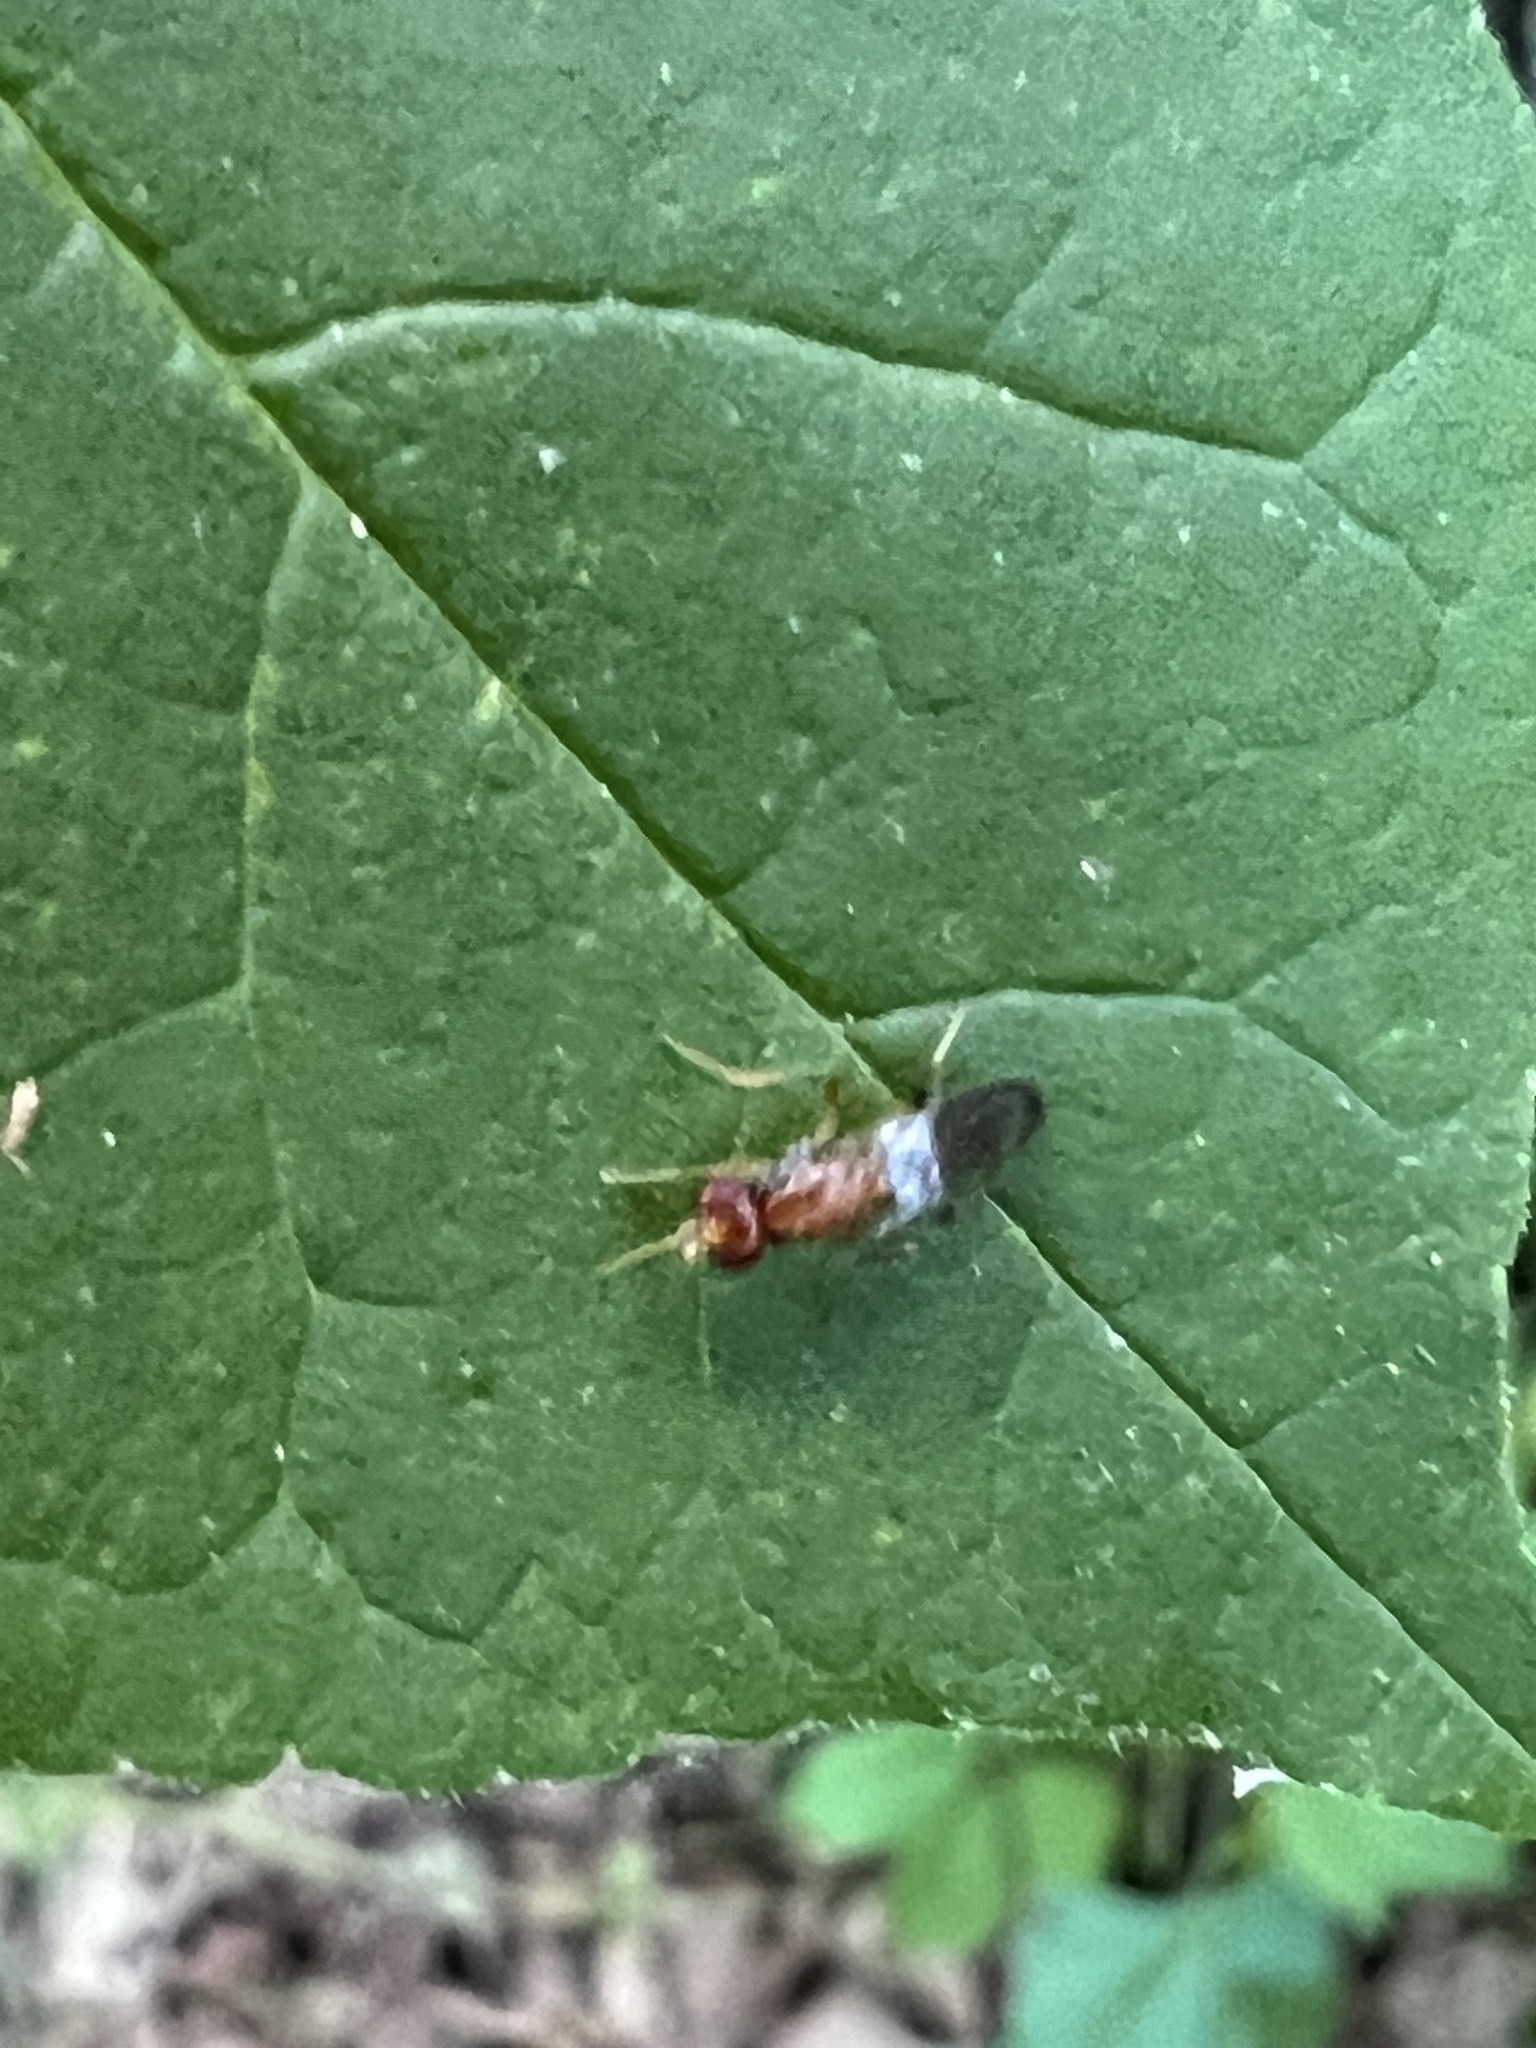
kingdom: Animalia
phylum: Arthropoda
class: Insecta
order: Diptera
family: Psilidae
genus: Chyliza
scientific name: Chyliza apicalis
